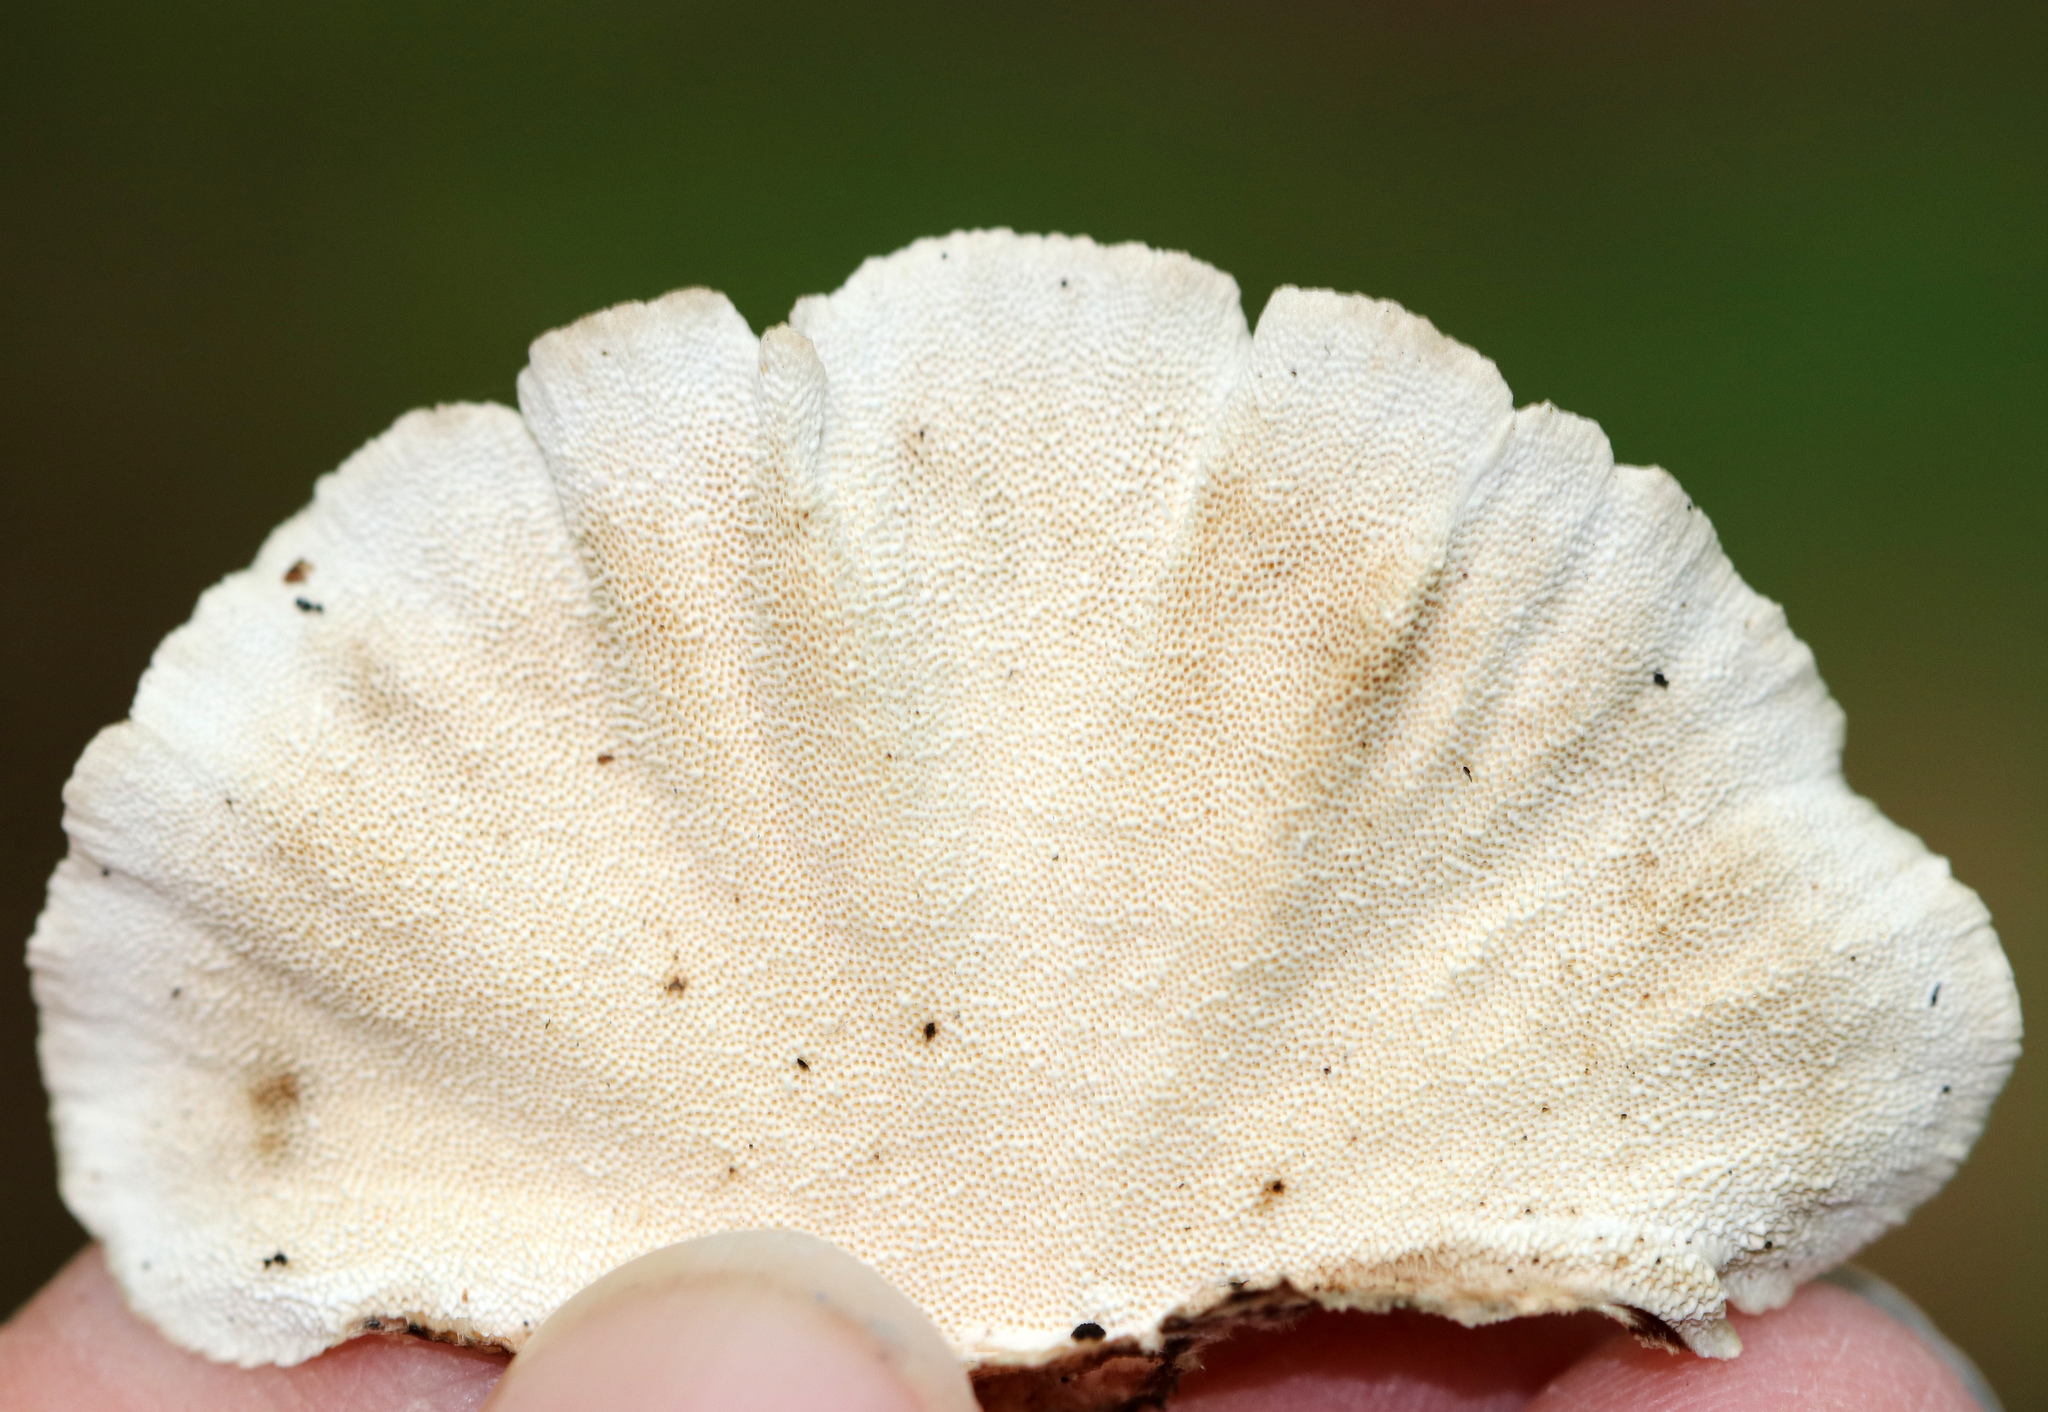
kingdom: Fungi
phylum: Basidiomycota
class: Agaricomycetes
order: Polyporales
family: Polyporaceae
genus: Trametes
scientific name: Trametes versicolor
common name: Turkeytail
